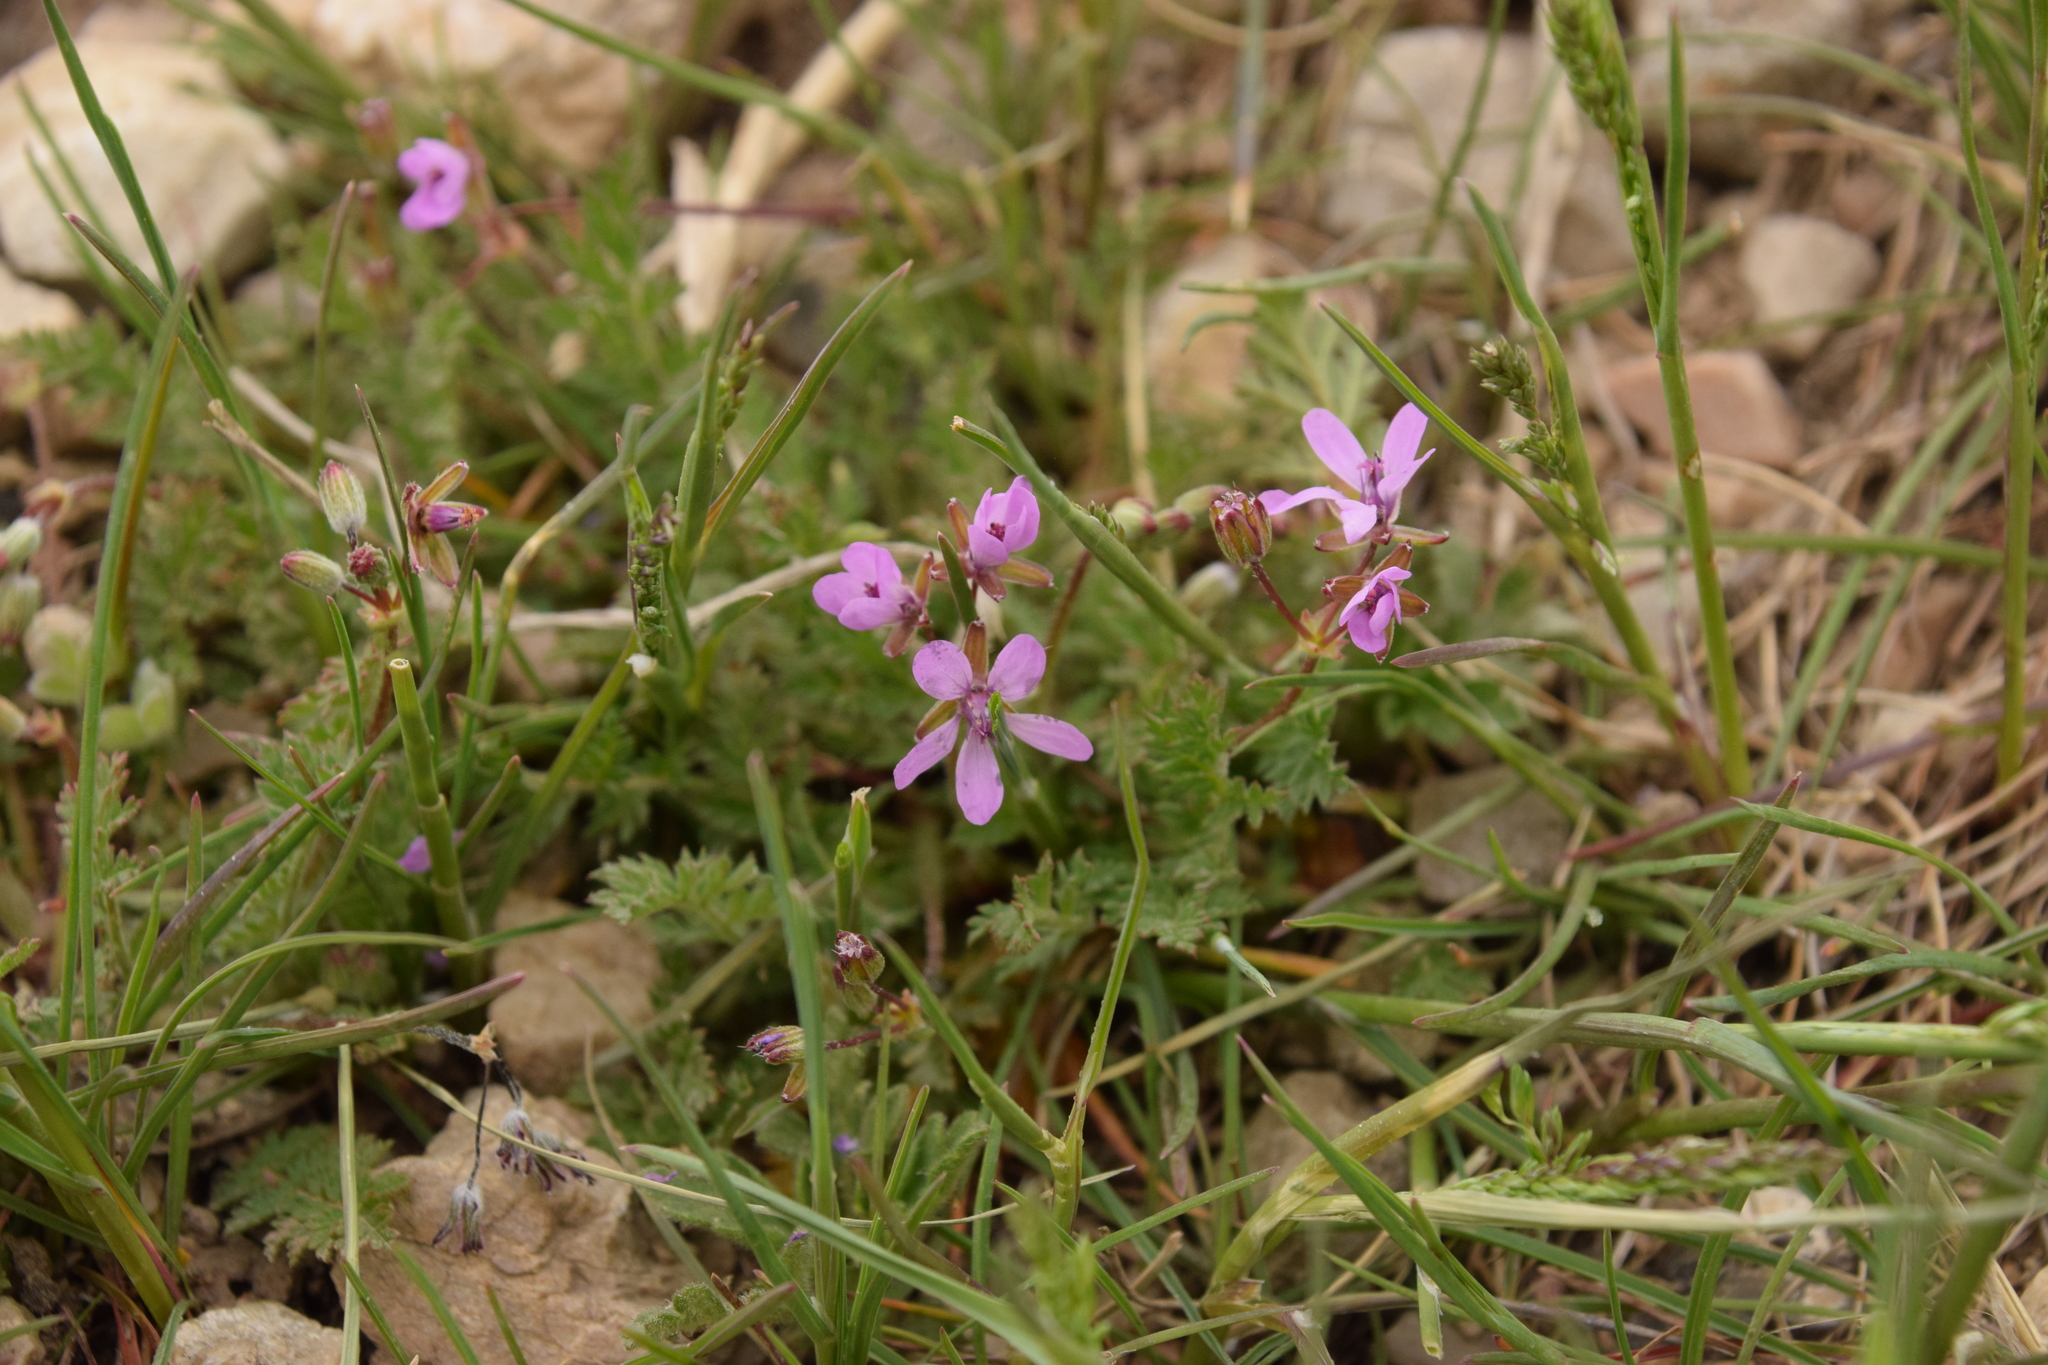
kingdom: Plantae
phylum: Tracheophyta
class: Magnoliopsida
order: Geraniales
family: Geraniaceae
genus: Erodium
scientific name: Erodium cicutarium
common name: Common stork's-bill
